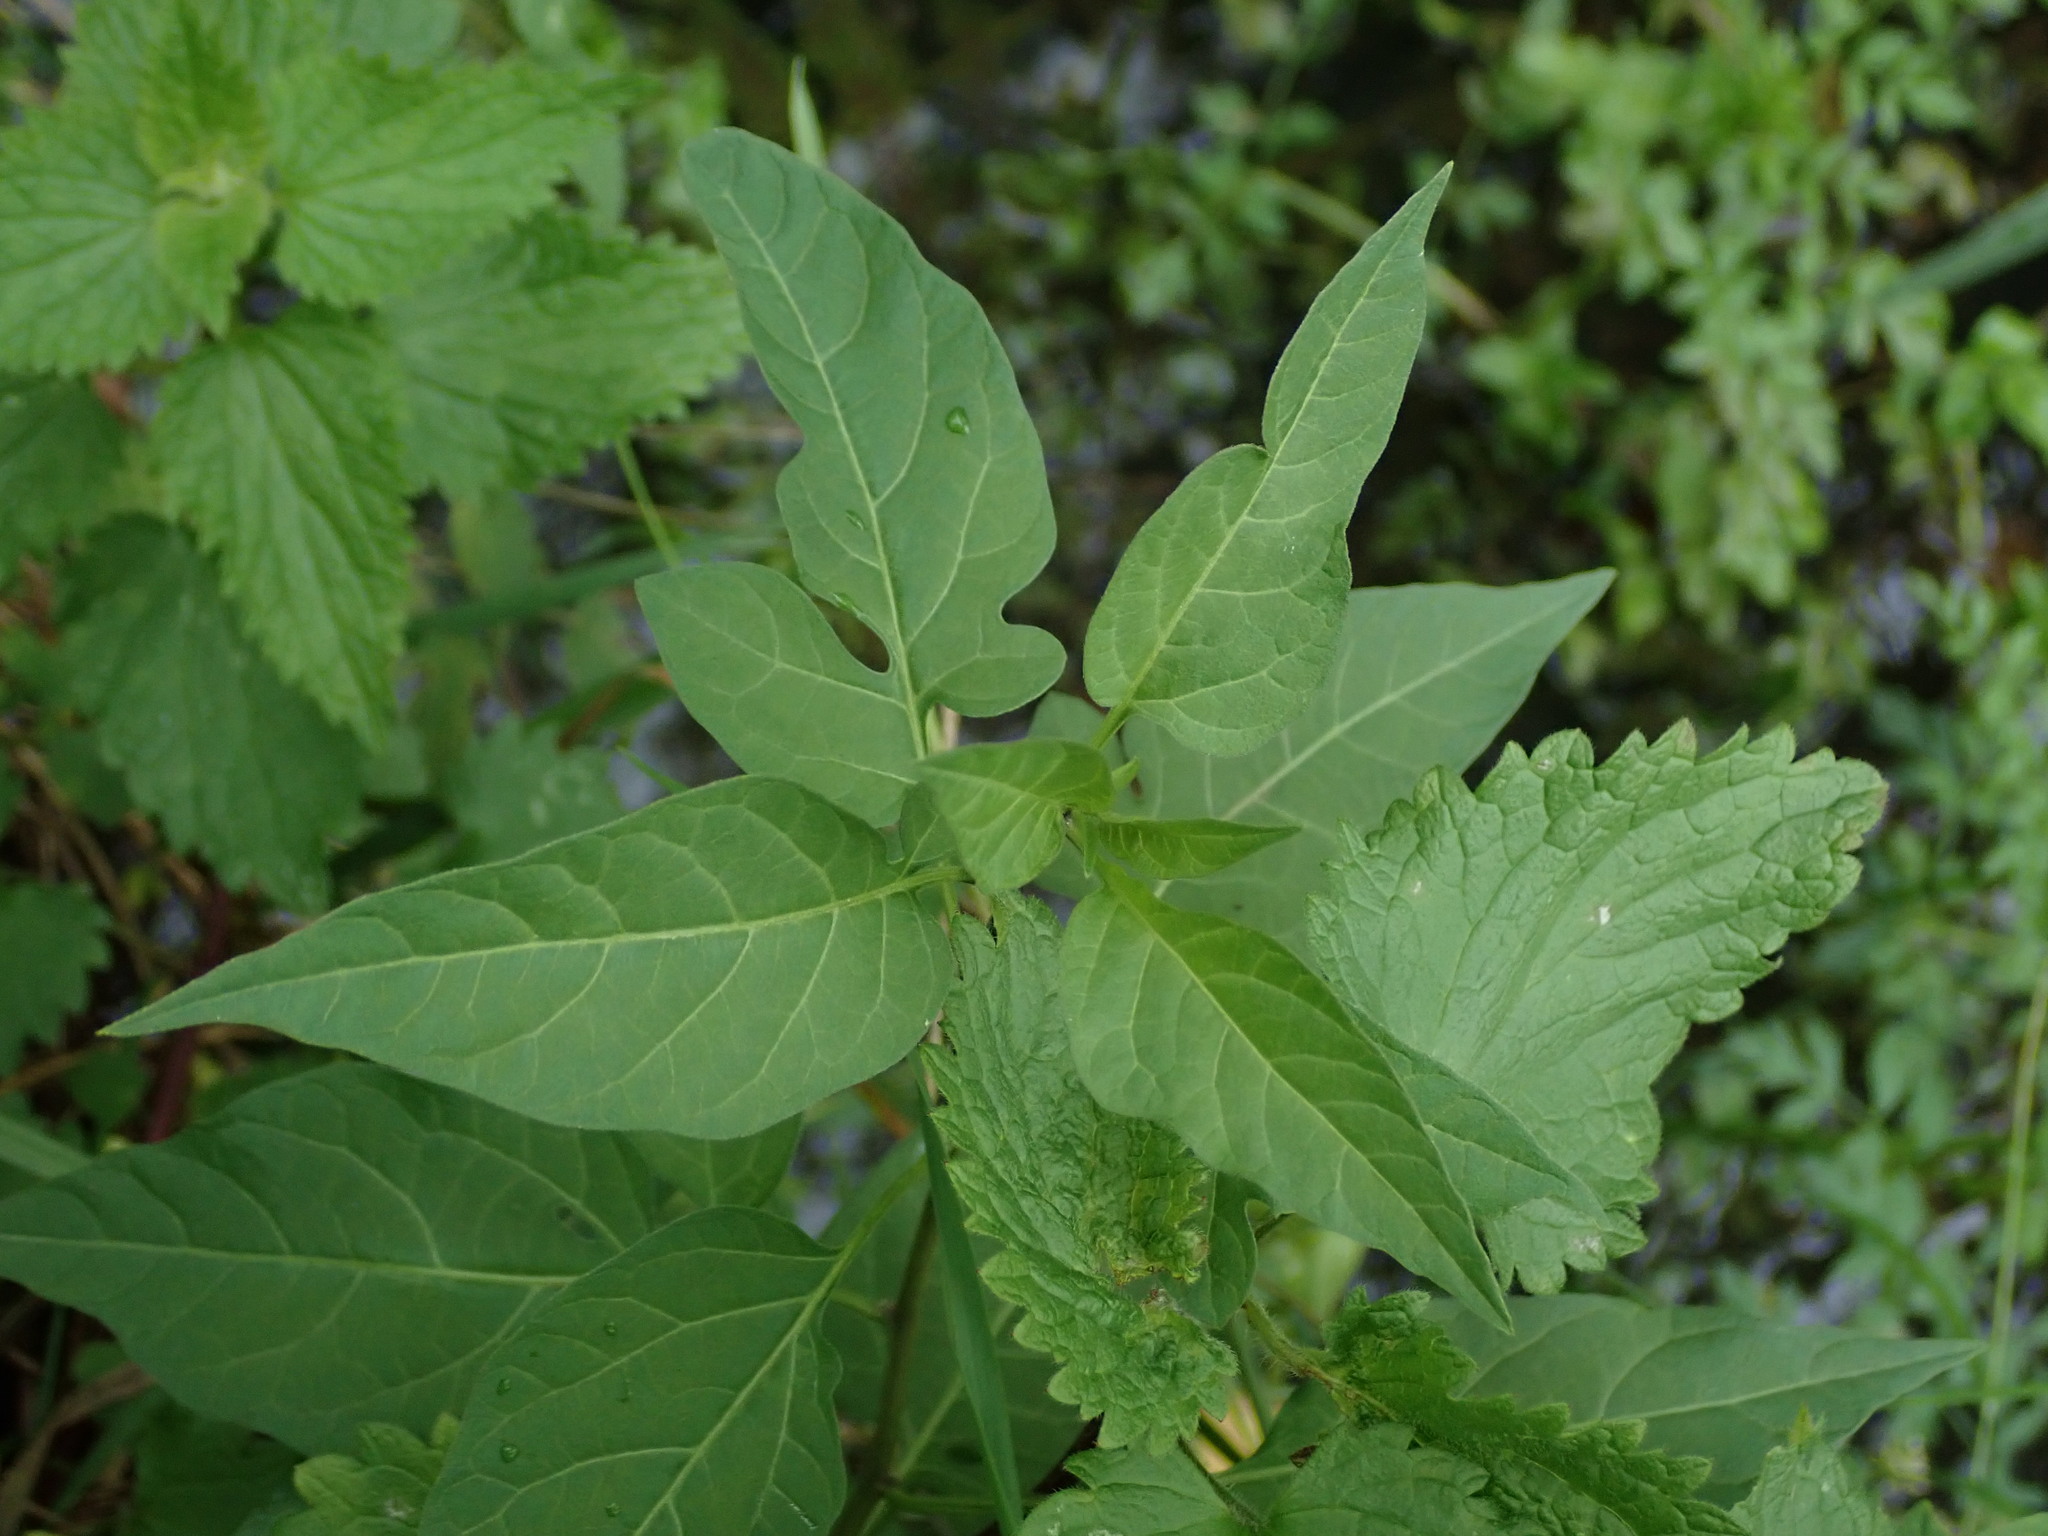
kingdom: Plantae
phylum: Tracheophyta
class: Magnoliopsida
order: Solanales
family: Solanaceae
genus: Solanum
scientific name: Solanum dulcamara
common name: Climbing nightshade
